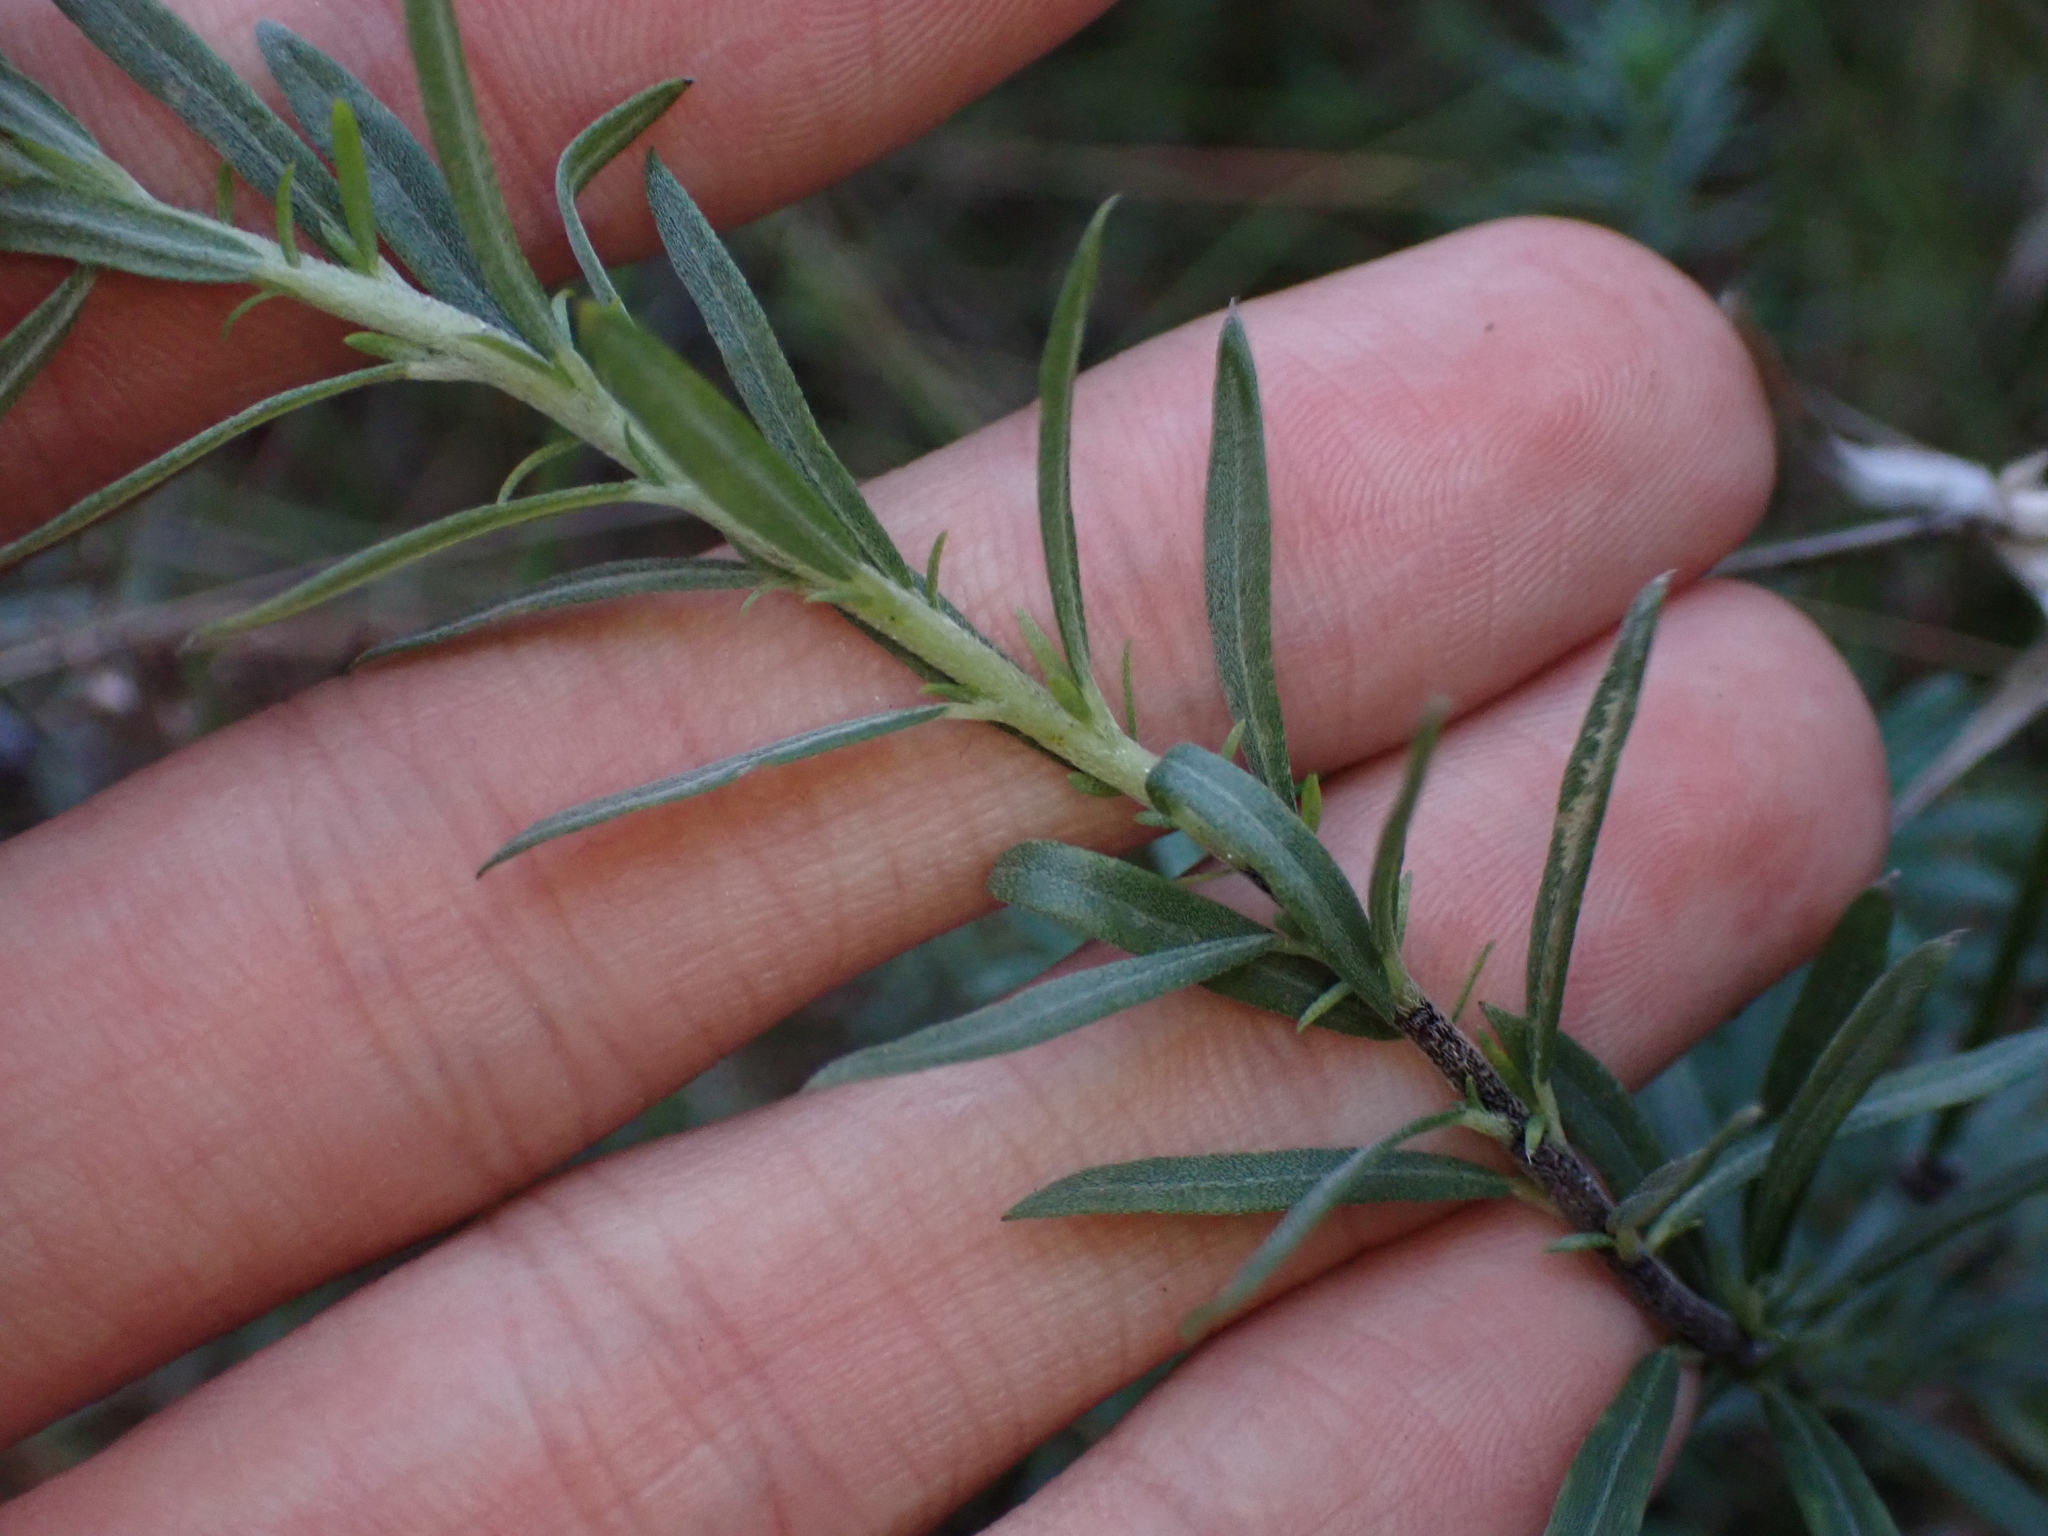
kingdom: Plantae
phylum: Tracheophyta
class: Magnoliopsida
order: Boraginales
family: Heliotropiaceae
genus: Euploca
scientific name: Euploca polyphylla
